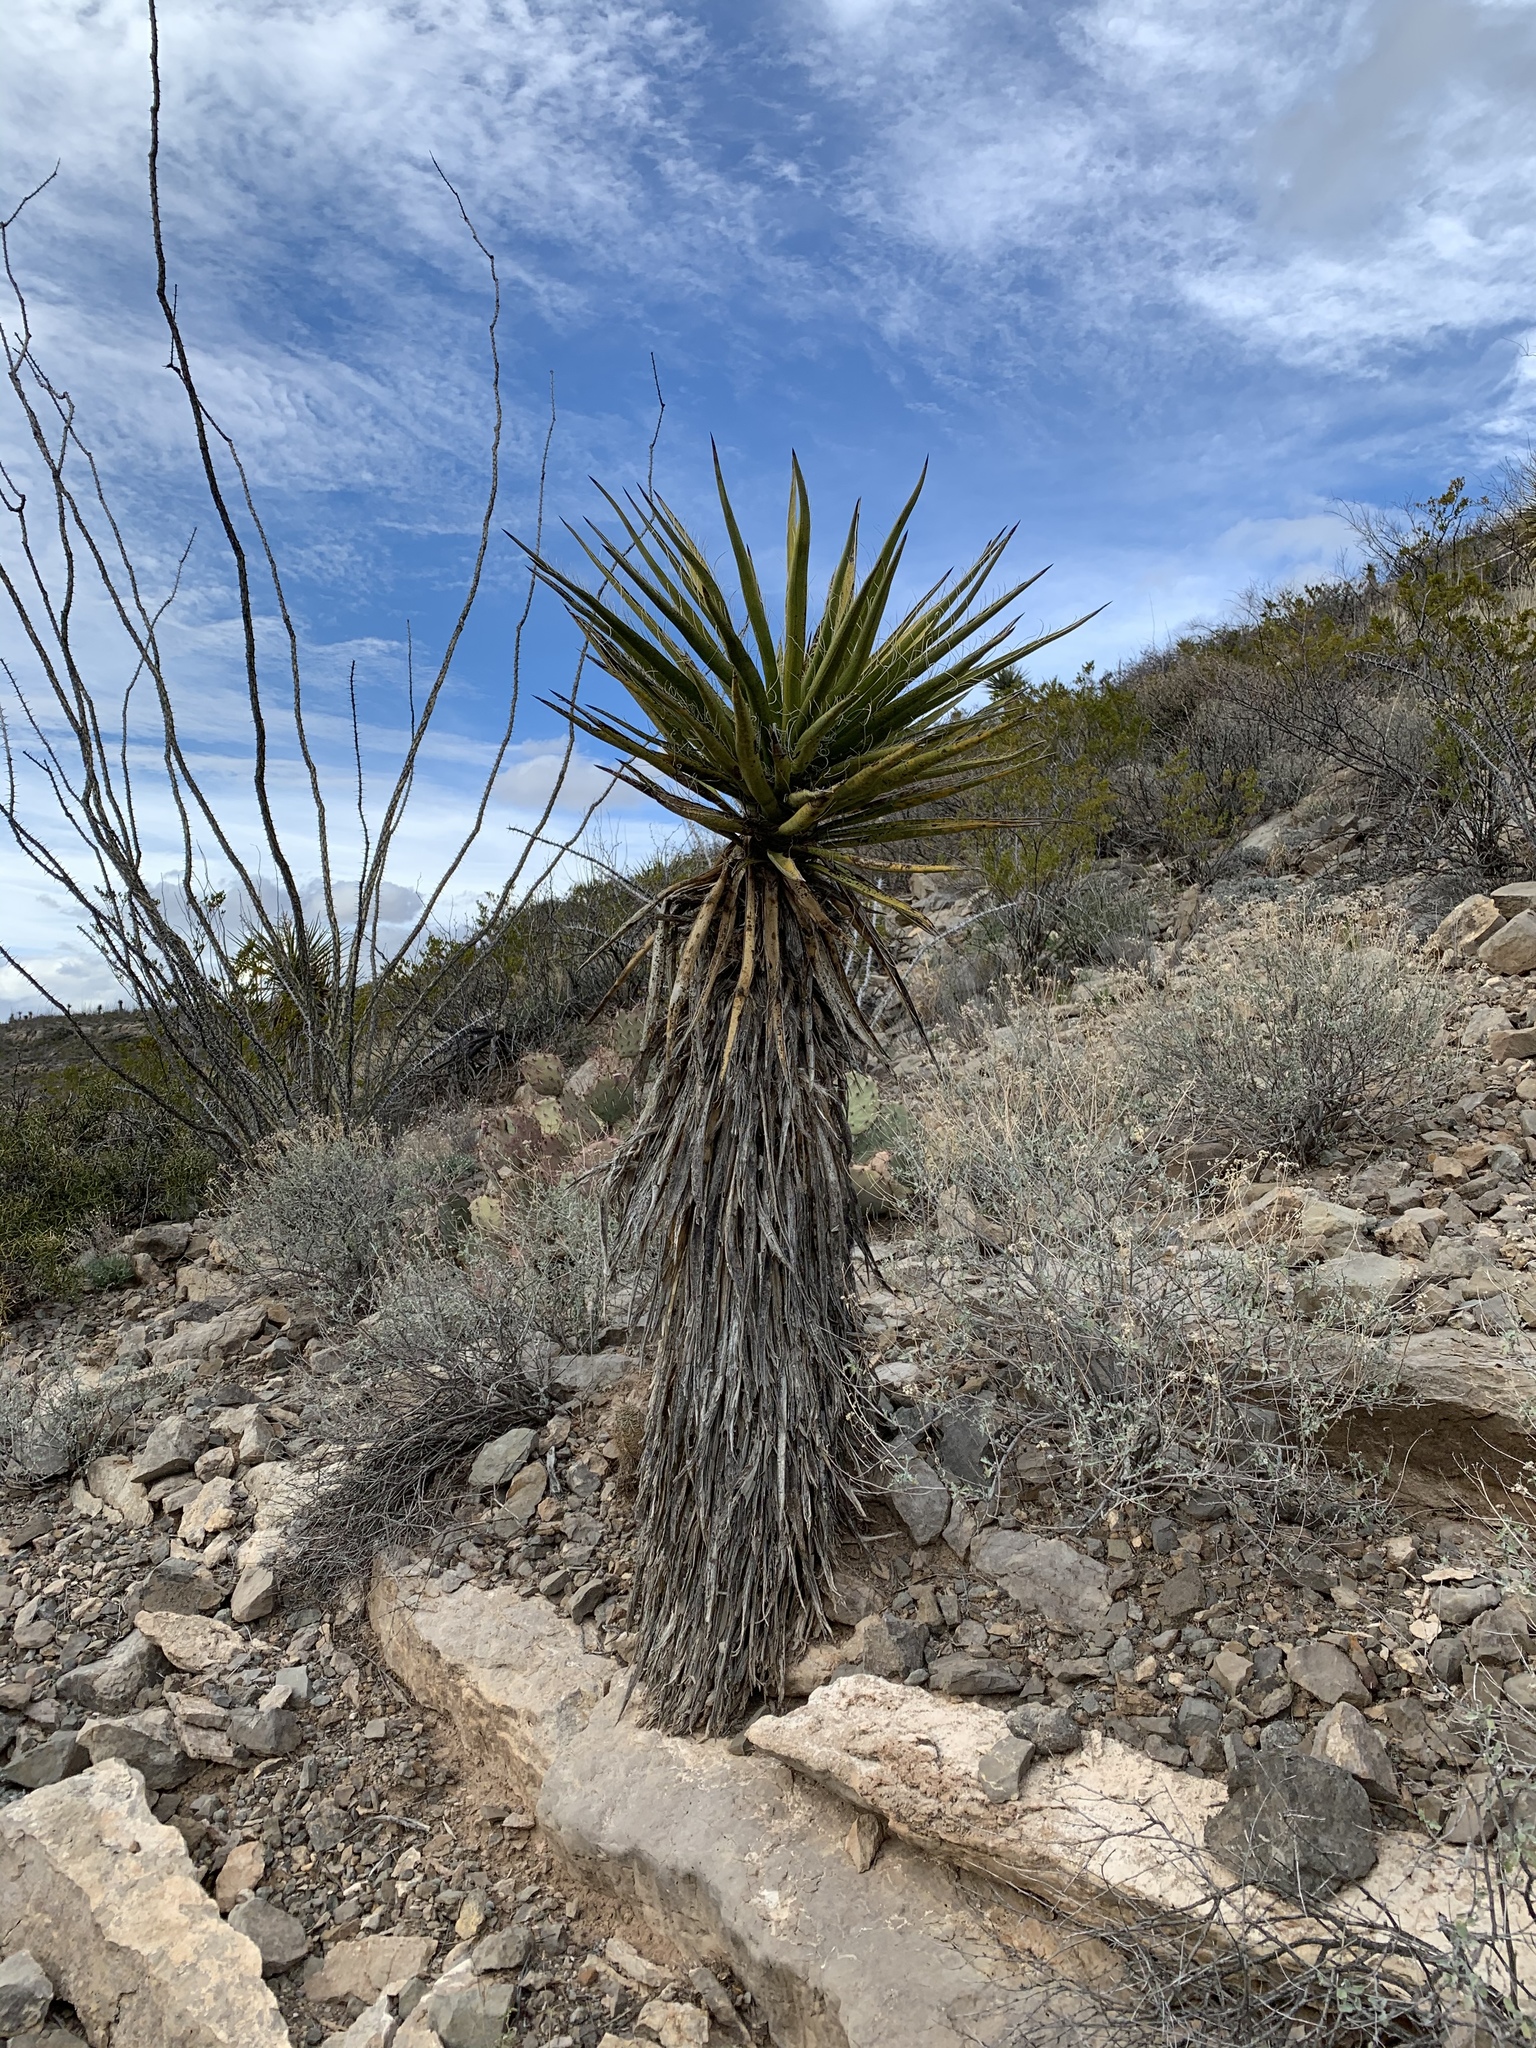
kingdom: Plantae
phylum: Tracheophyta
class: Liliopsida
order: Asparagales
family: Asparagaceae
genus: Yucca
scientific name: Yucca treculiana
